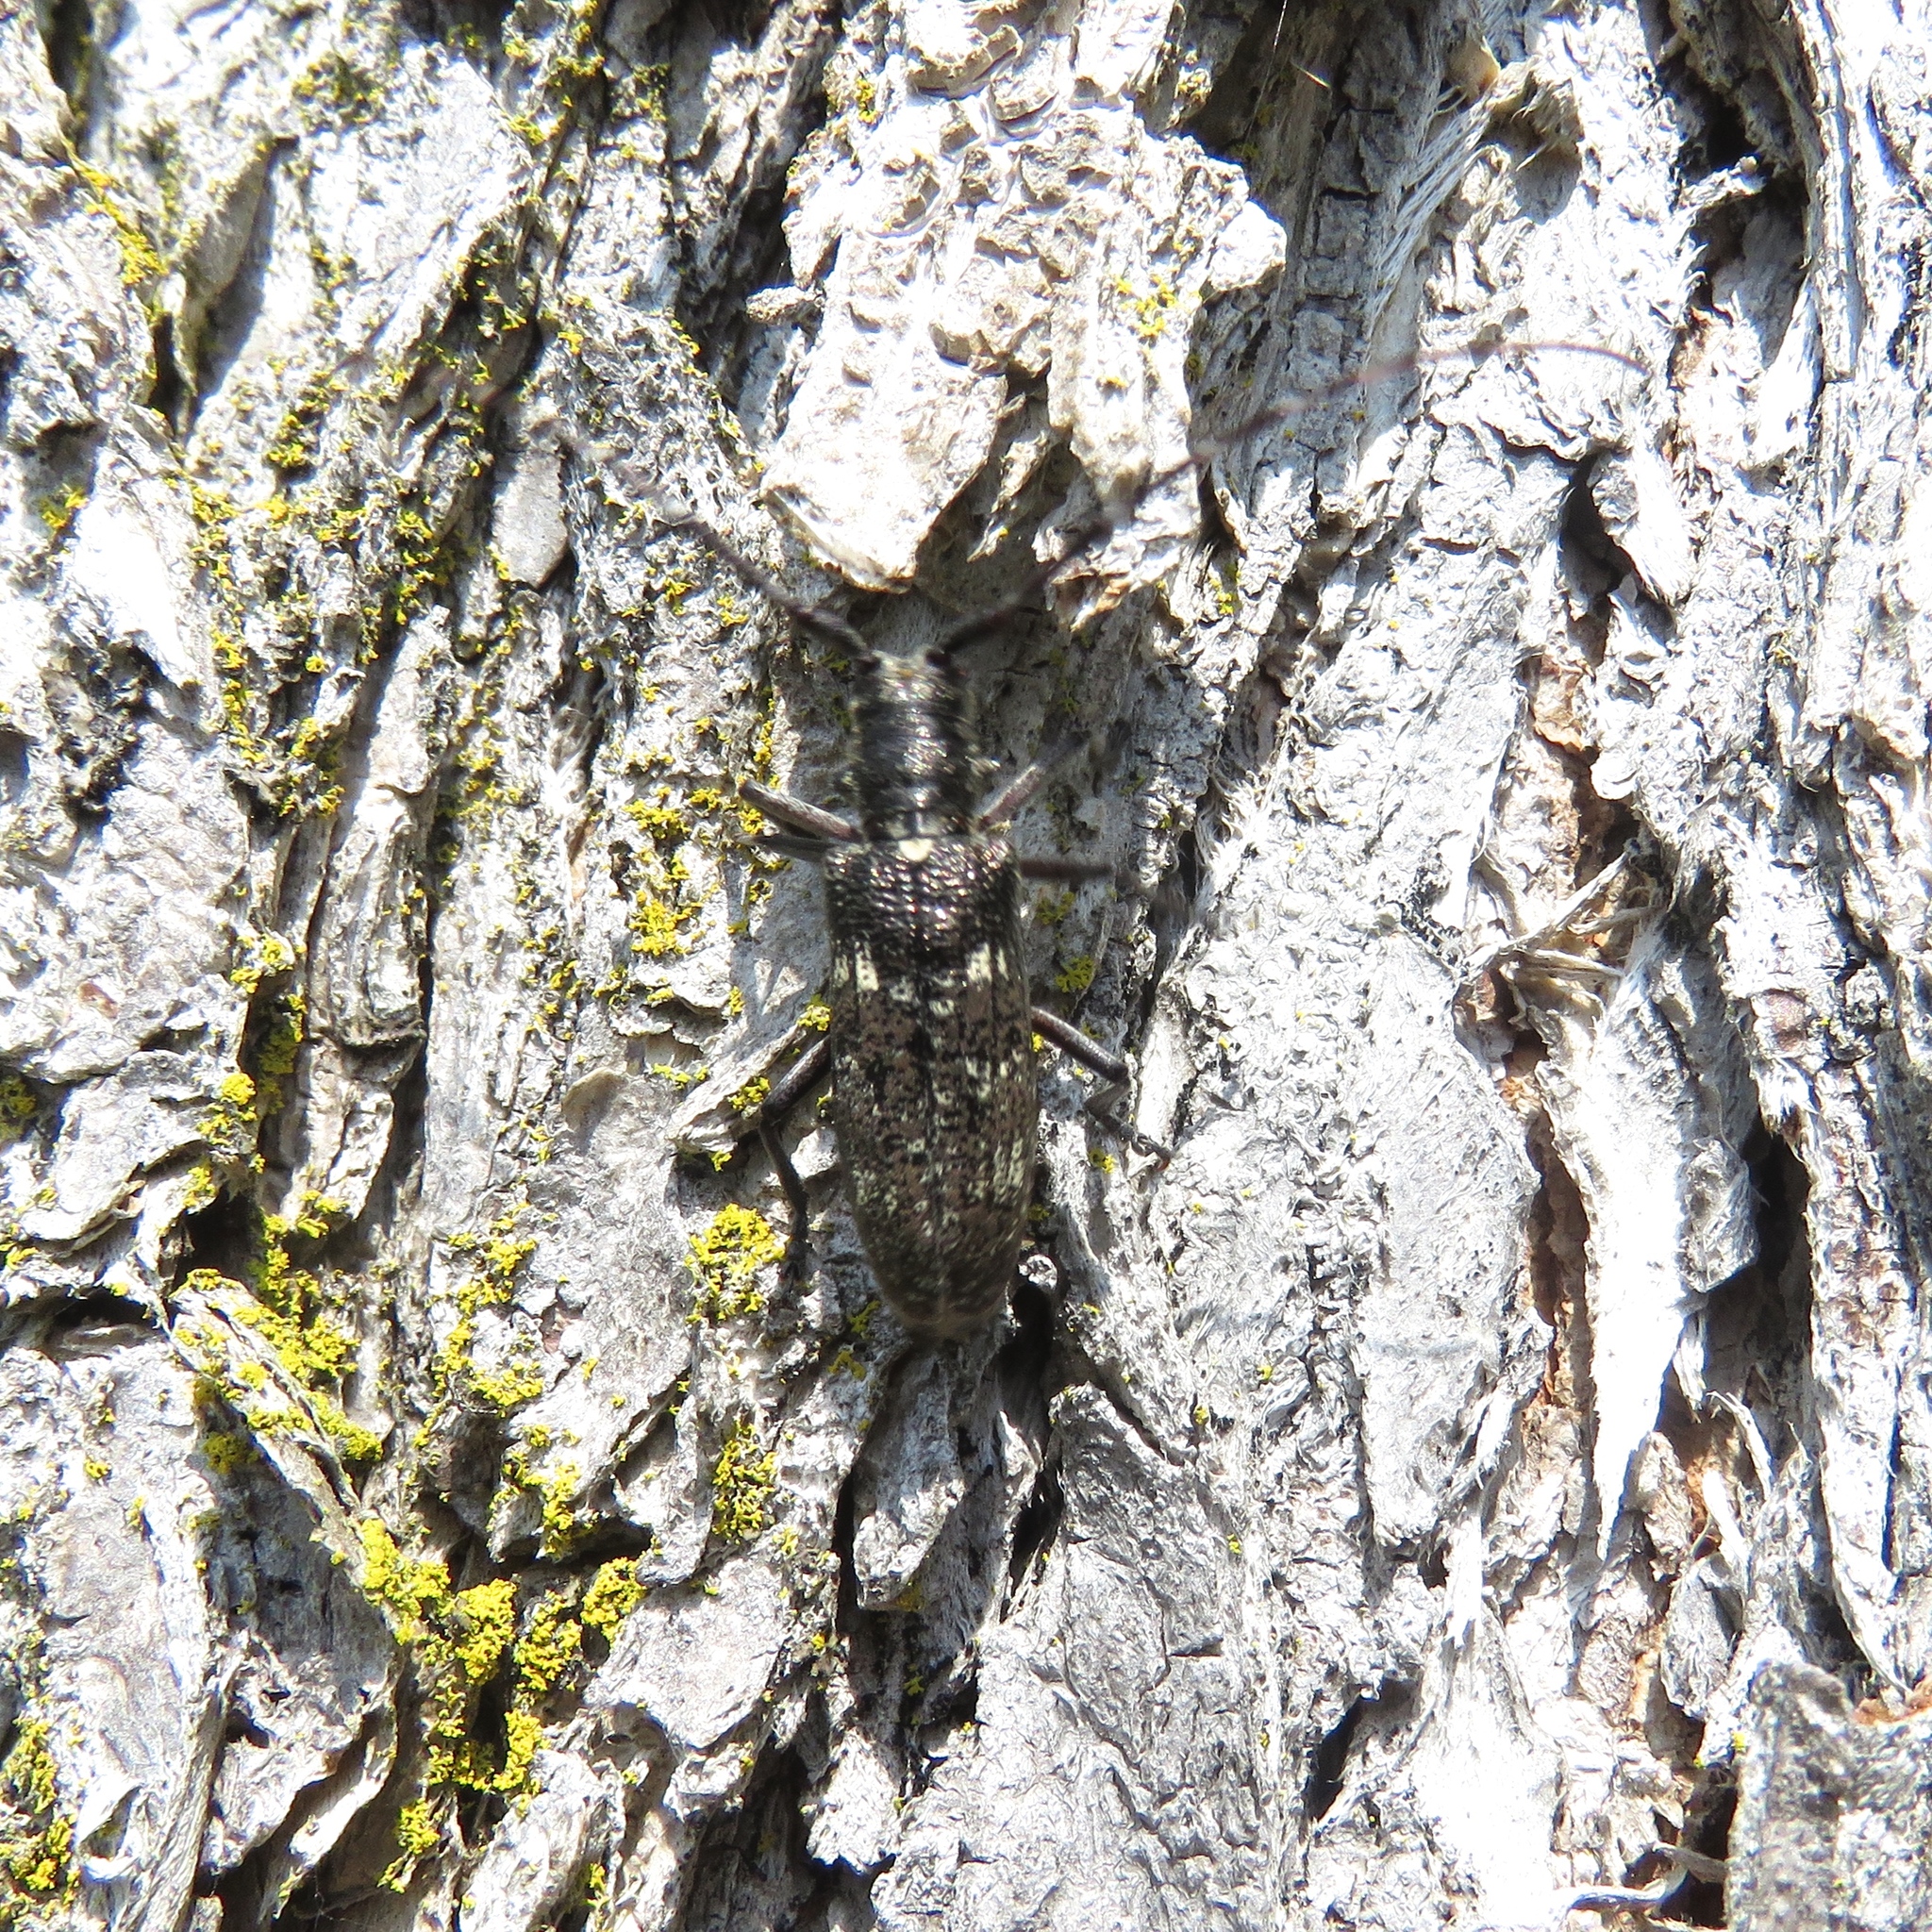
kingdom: Animalia
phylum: Arthropoda
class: Insecta
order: Coleoptera
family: Cerambycidae
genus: Monochamus
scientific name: Monochamus scutellatus
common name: White-spotted sawyer beetle
